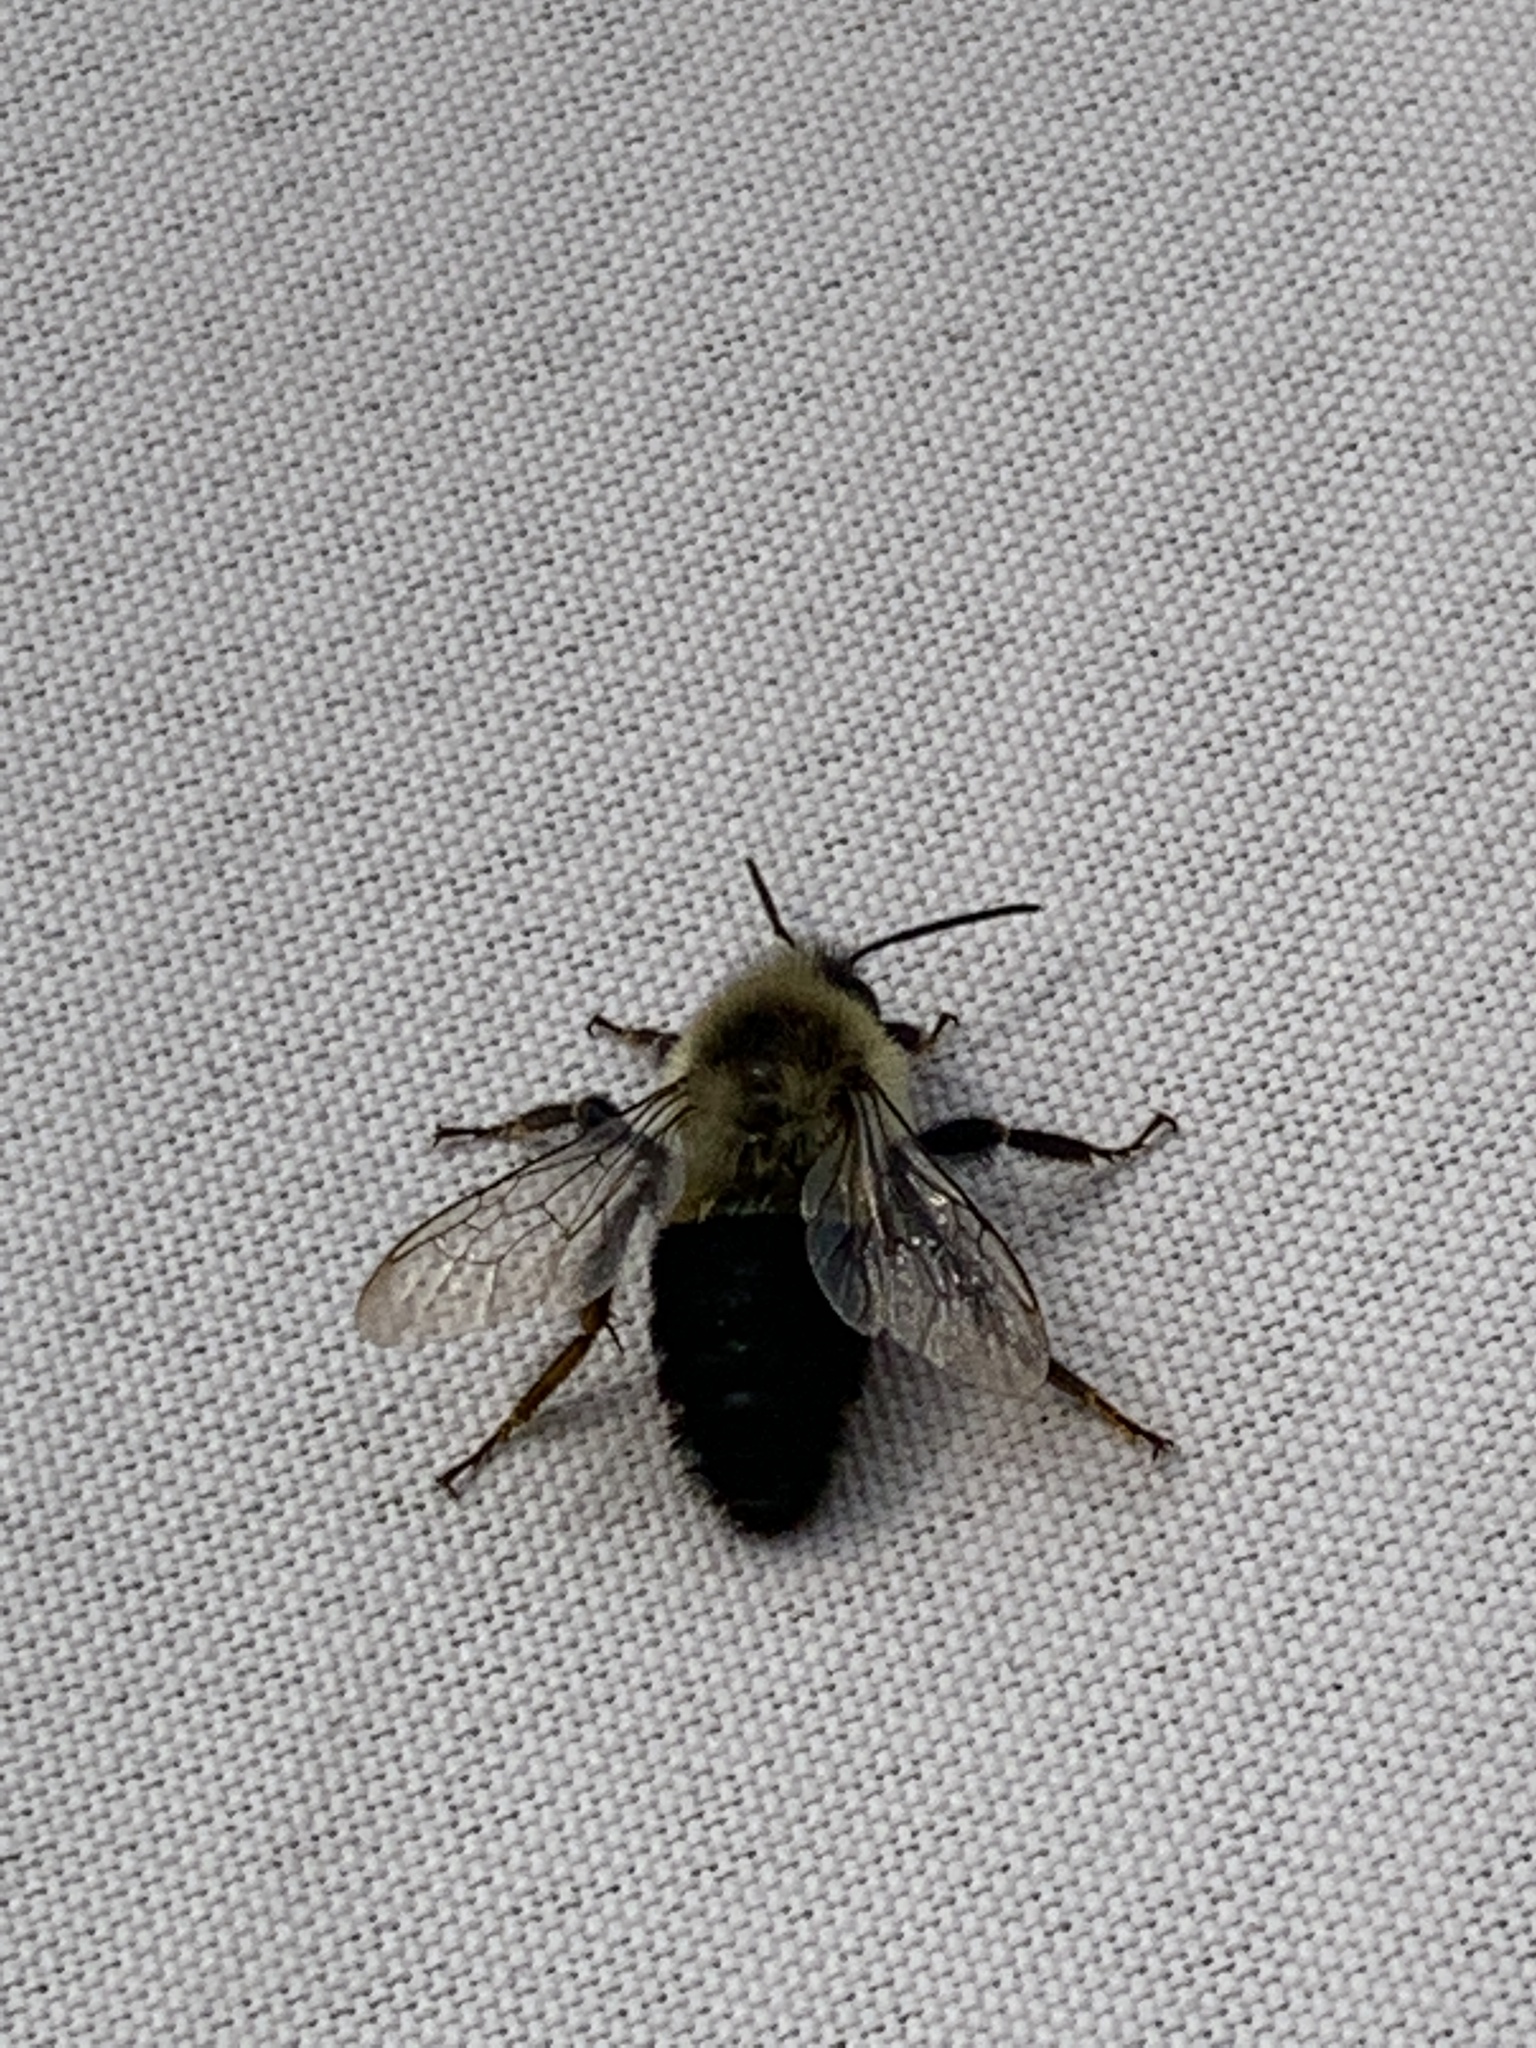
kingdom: Animalia
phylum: Arthropoda
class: Insecta
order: Hymenoptera
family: Apidae
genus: Bombus
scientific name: Bombus impatiens
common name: Common eastern bumble bee
